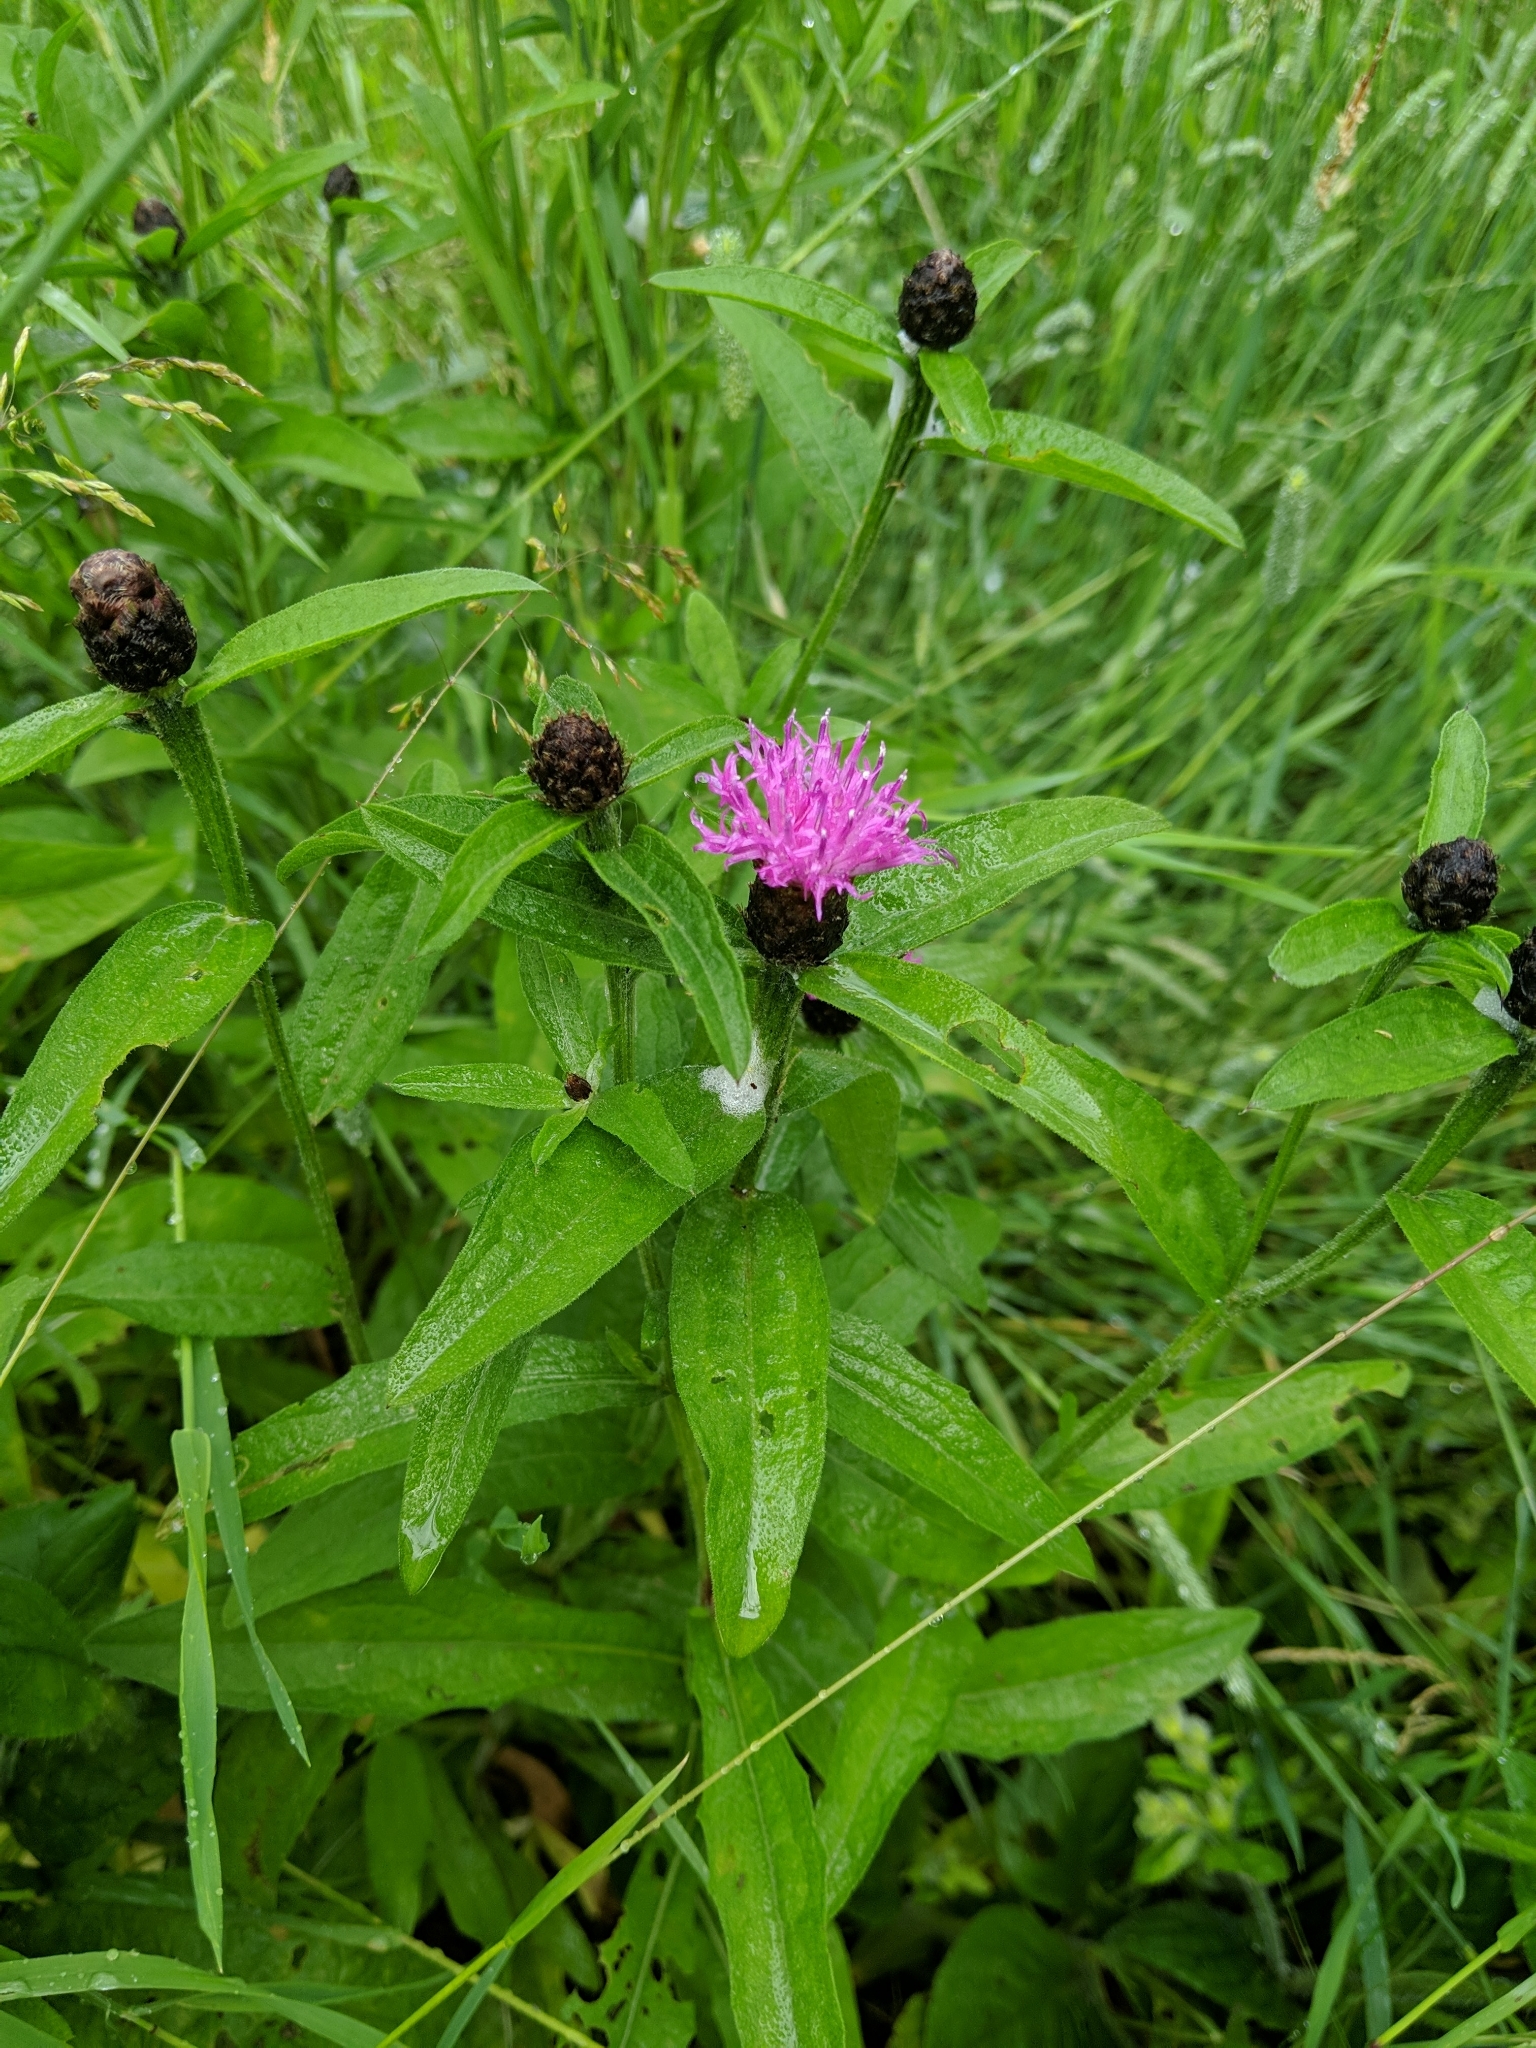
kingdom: Plantae
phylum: Tracheophyta
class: Magnoliopsida
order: Asterales
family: Asteraceae
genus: Centaurea
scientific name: Centaurea nigra
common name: Lesser knapweed
